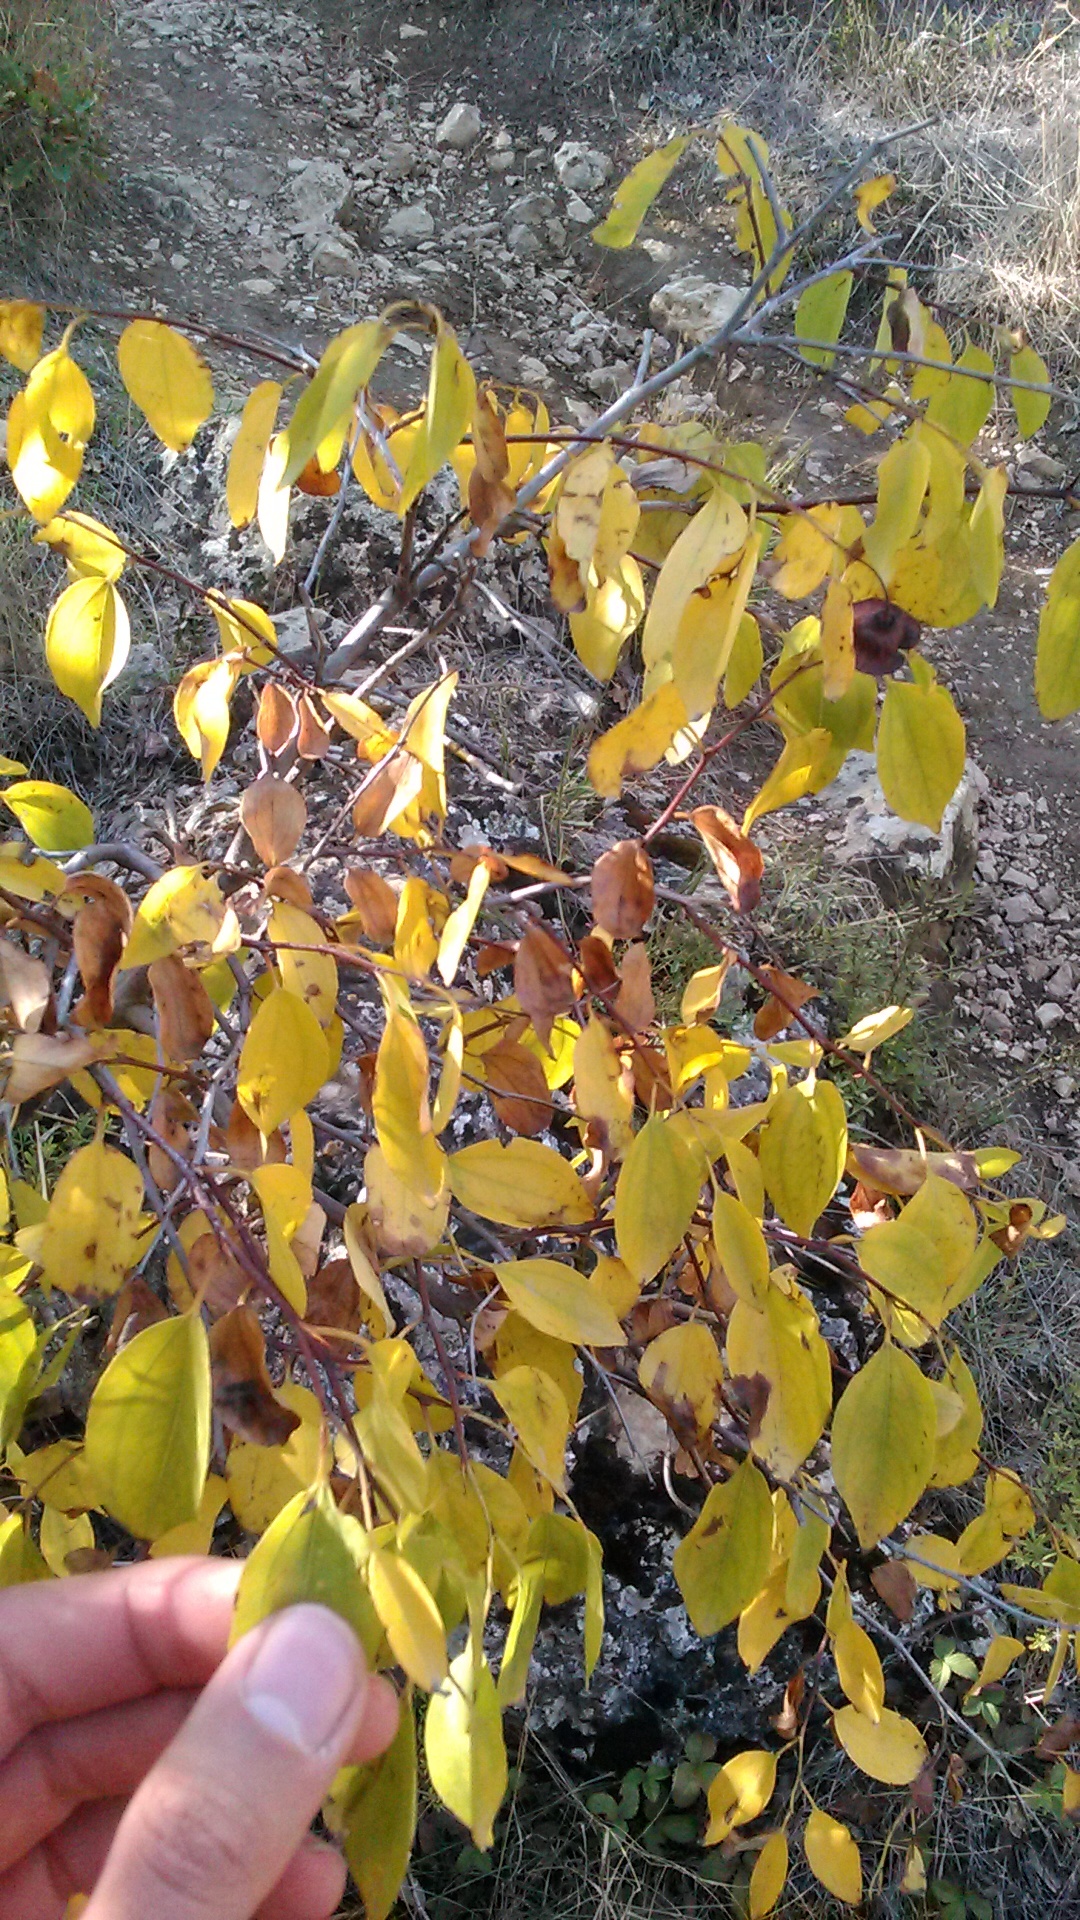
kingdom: Plantae
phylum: Tracheophyta
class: Magnoliopsida
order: Rosales
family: Rhamnaceae
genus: Paliurus
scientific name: Paliurus spina-christi
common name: Jeruselem thorn
